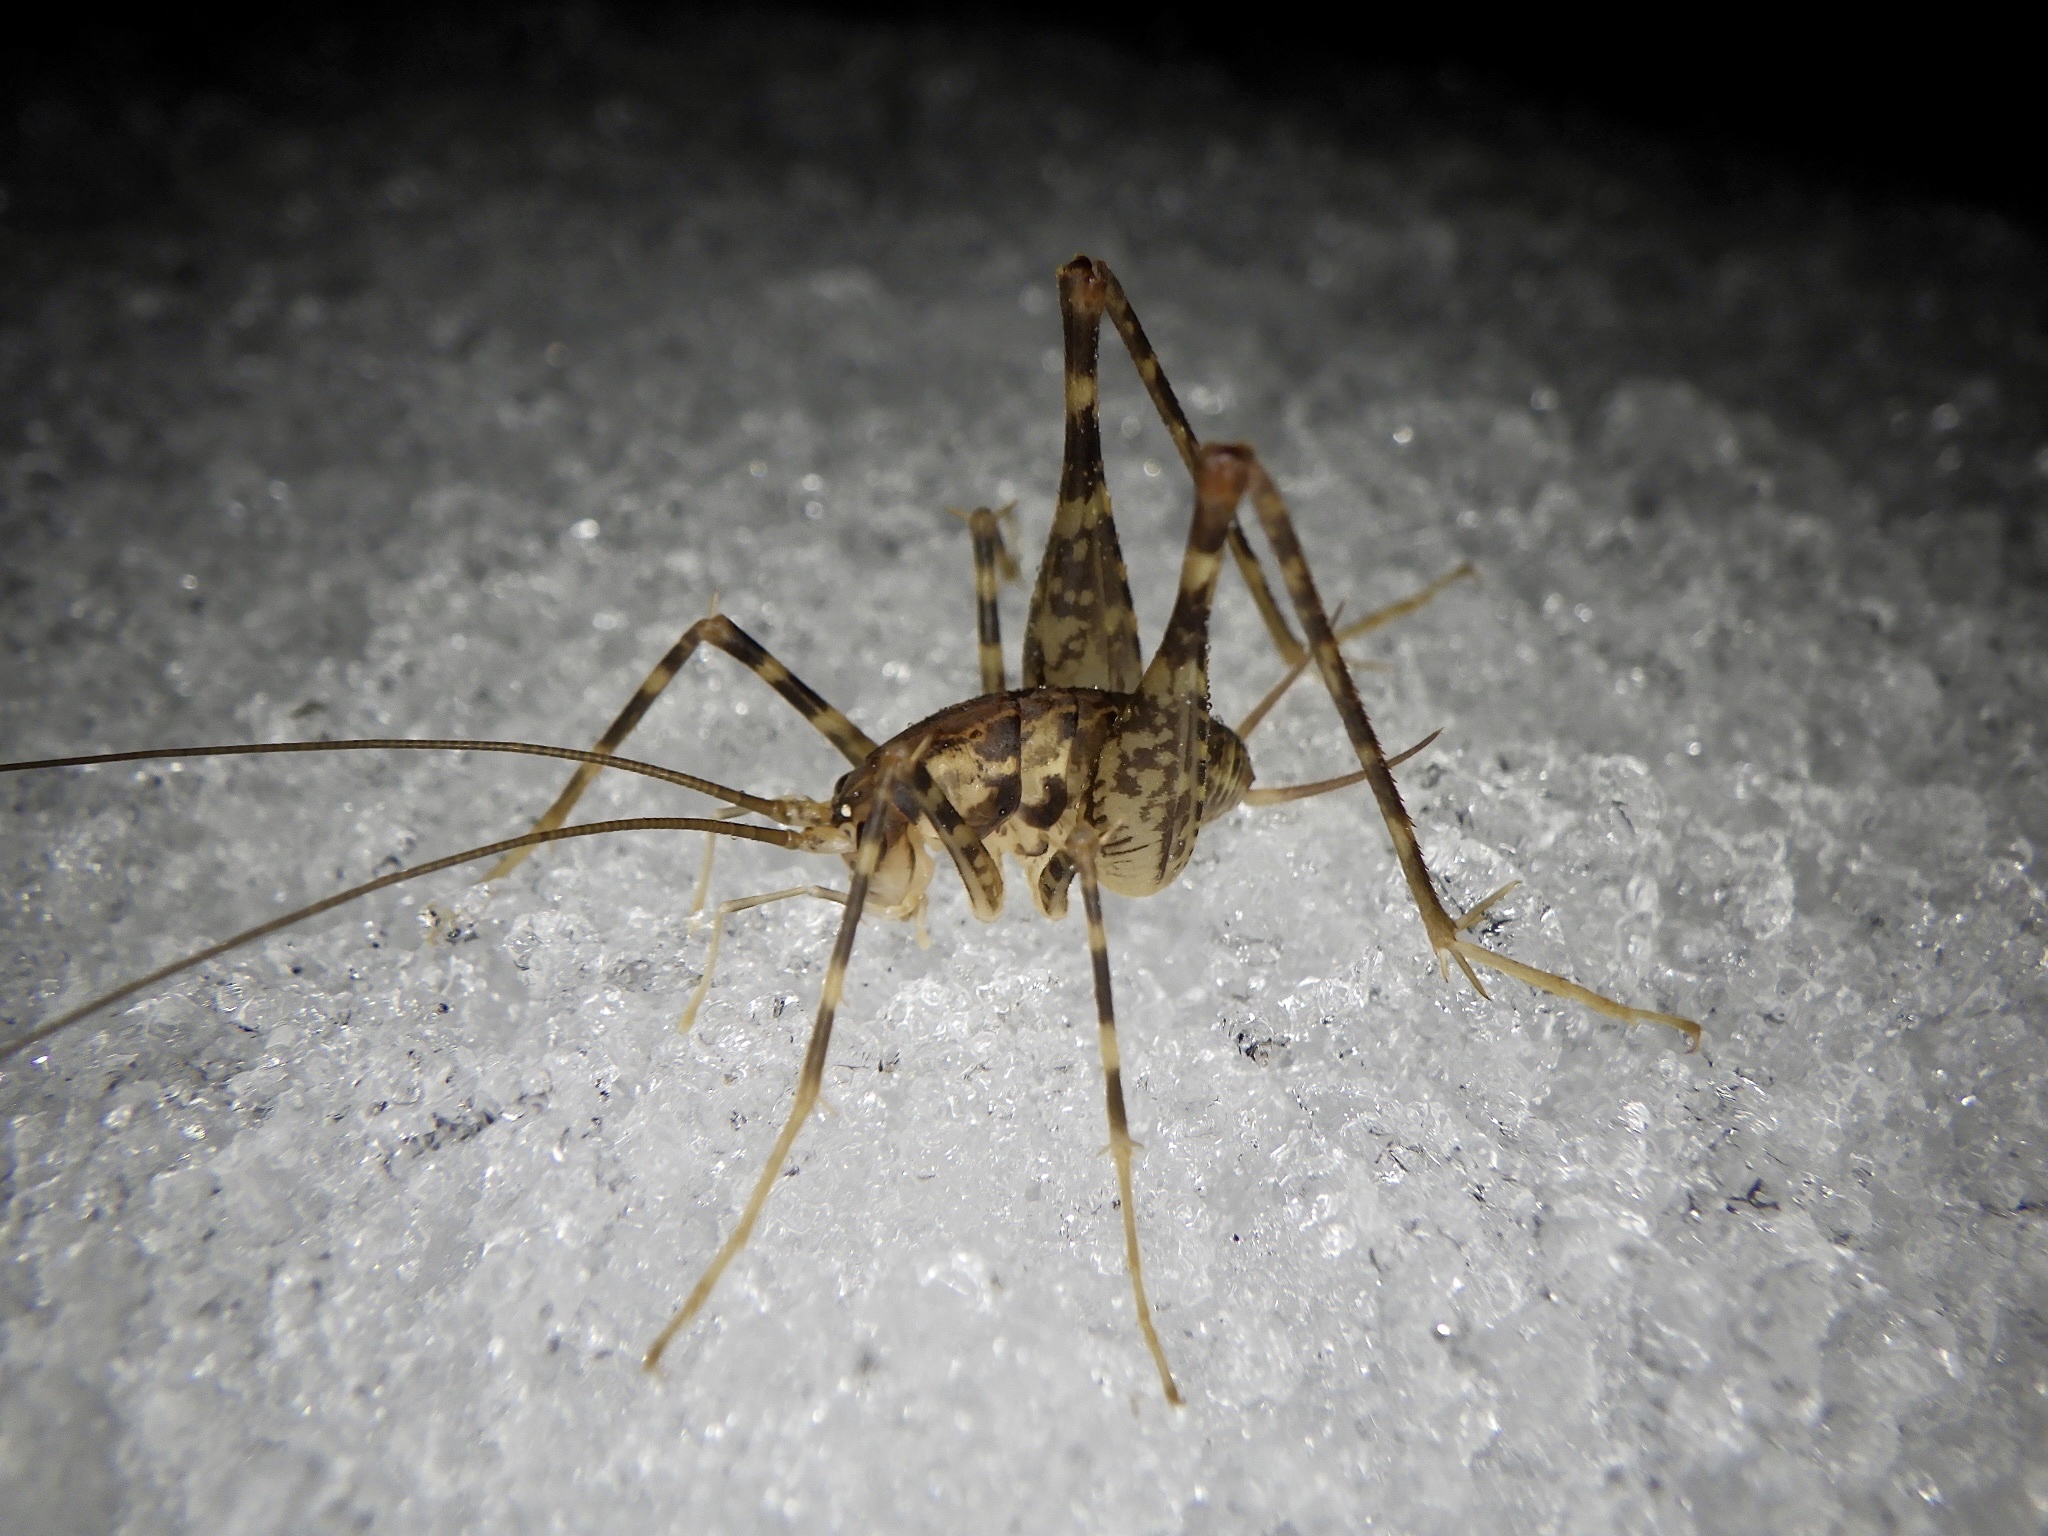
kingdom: Animalia
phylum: Arthropoda
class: Insecta
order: Orthoptera
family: Rhaphidophoridae
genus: Diestrammena
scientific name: Diestrammena japanica
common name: Japanese camel cricket
